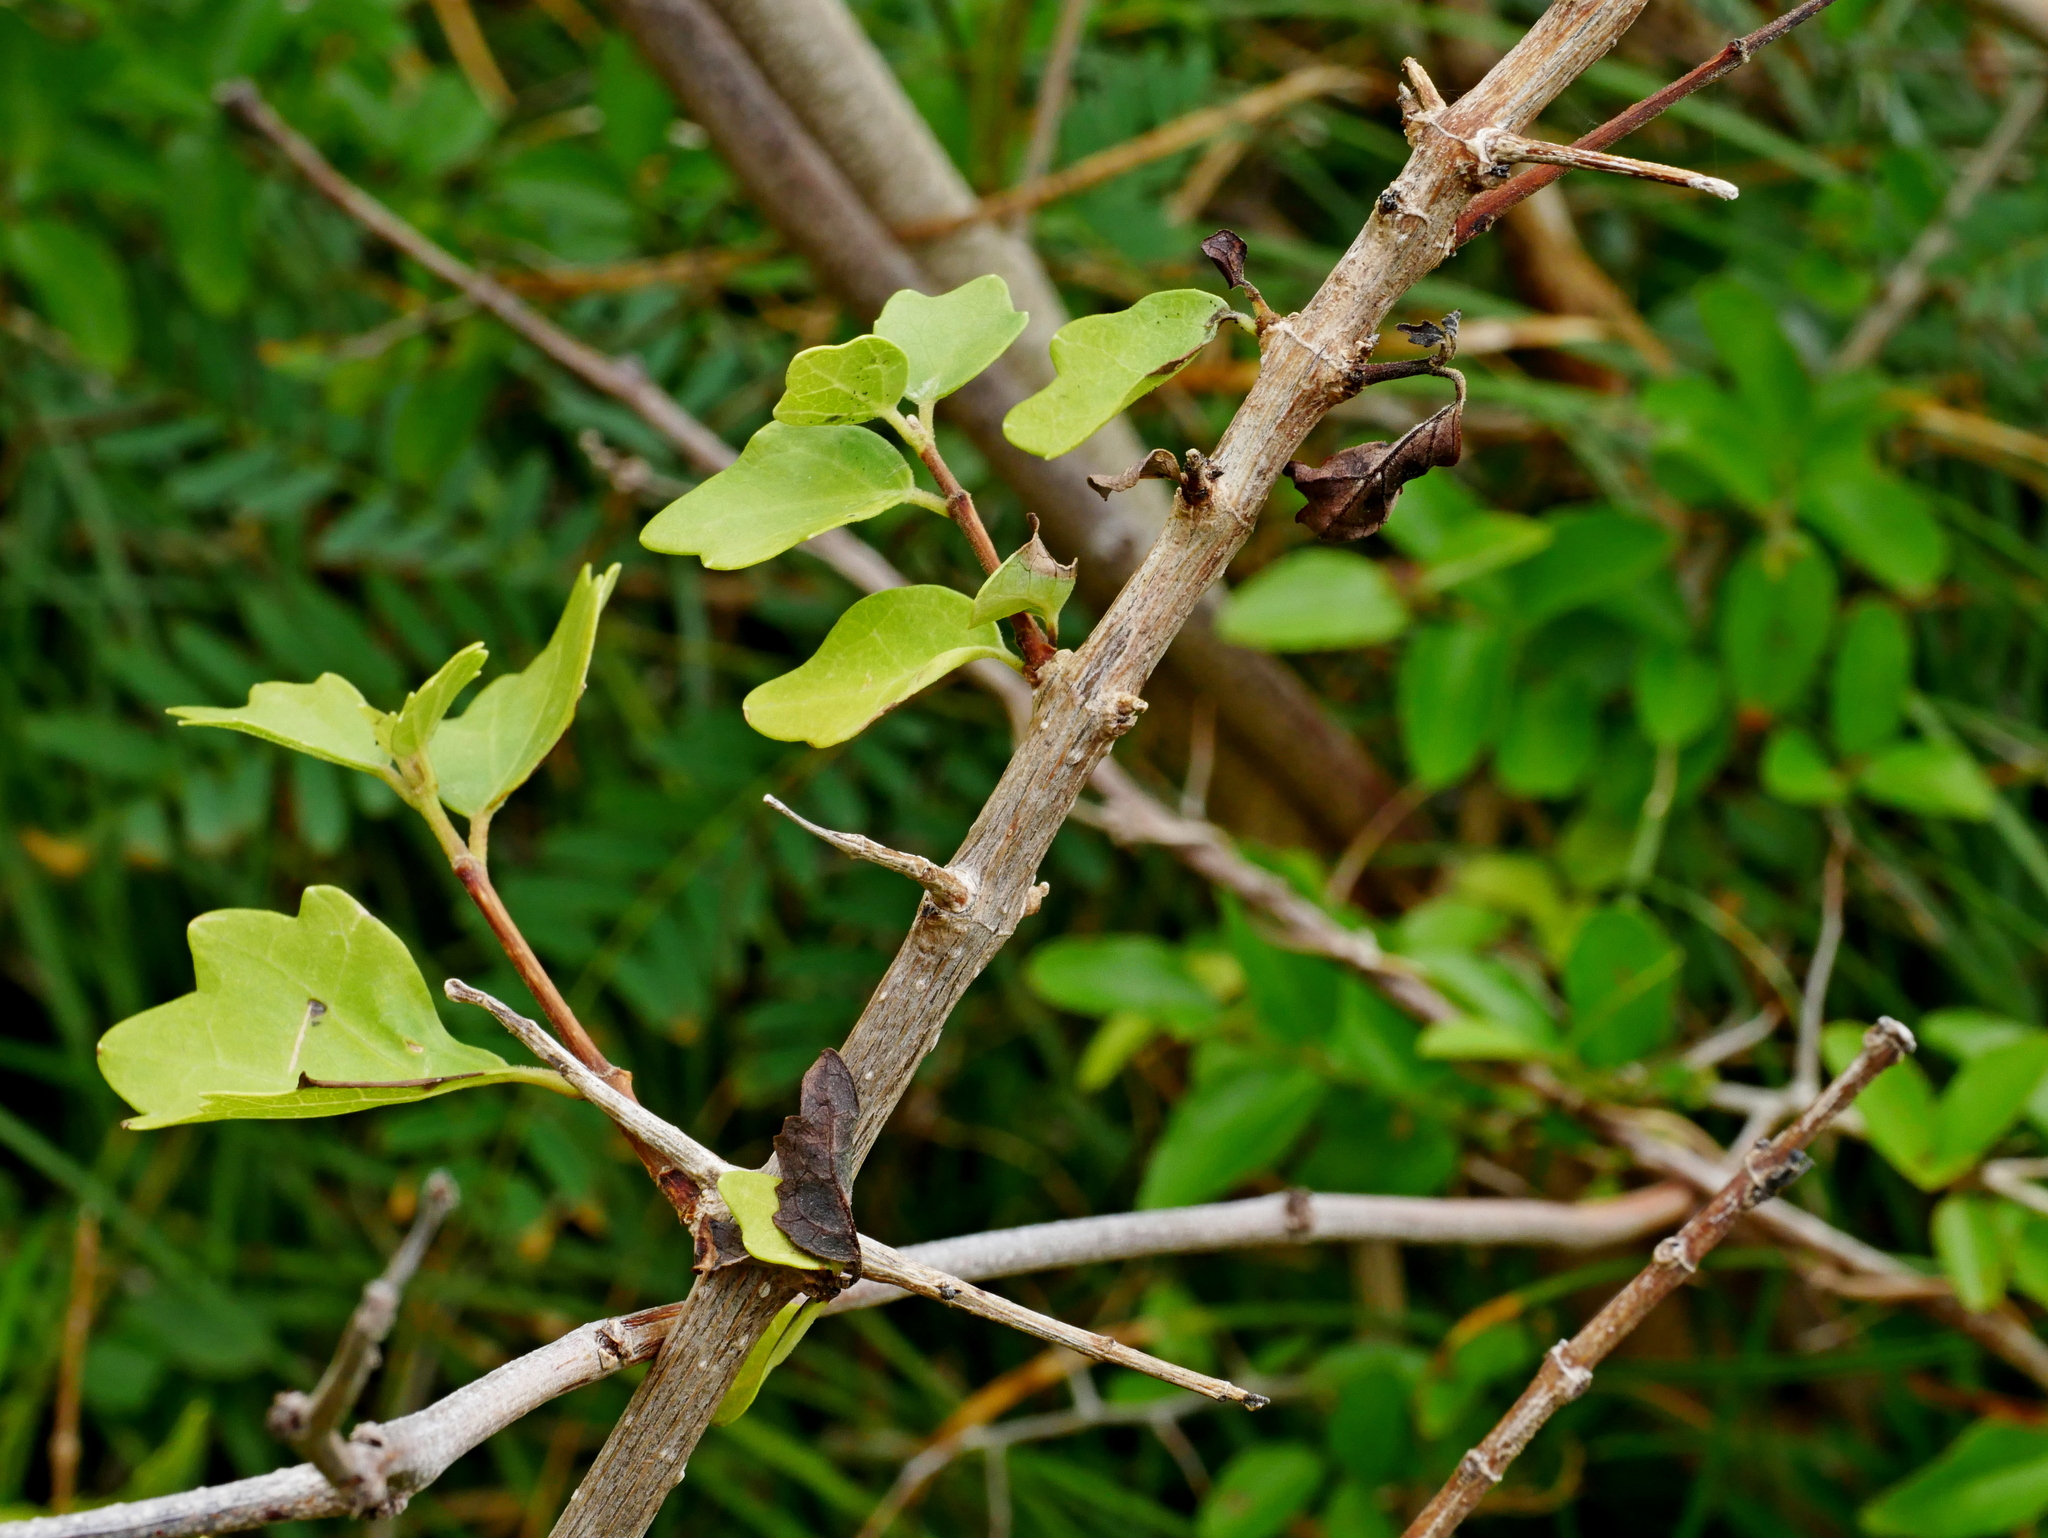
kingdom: Plantae
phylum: Tracheophyta
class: Magnoliopsida
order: Lamiales
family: Lamiaceae
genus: Premna
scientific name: Premna hengchunensis
